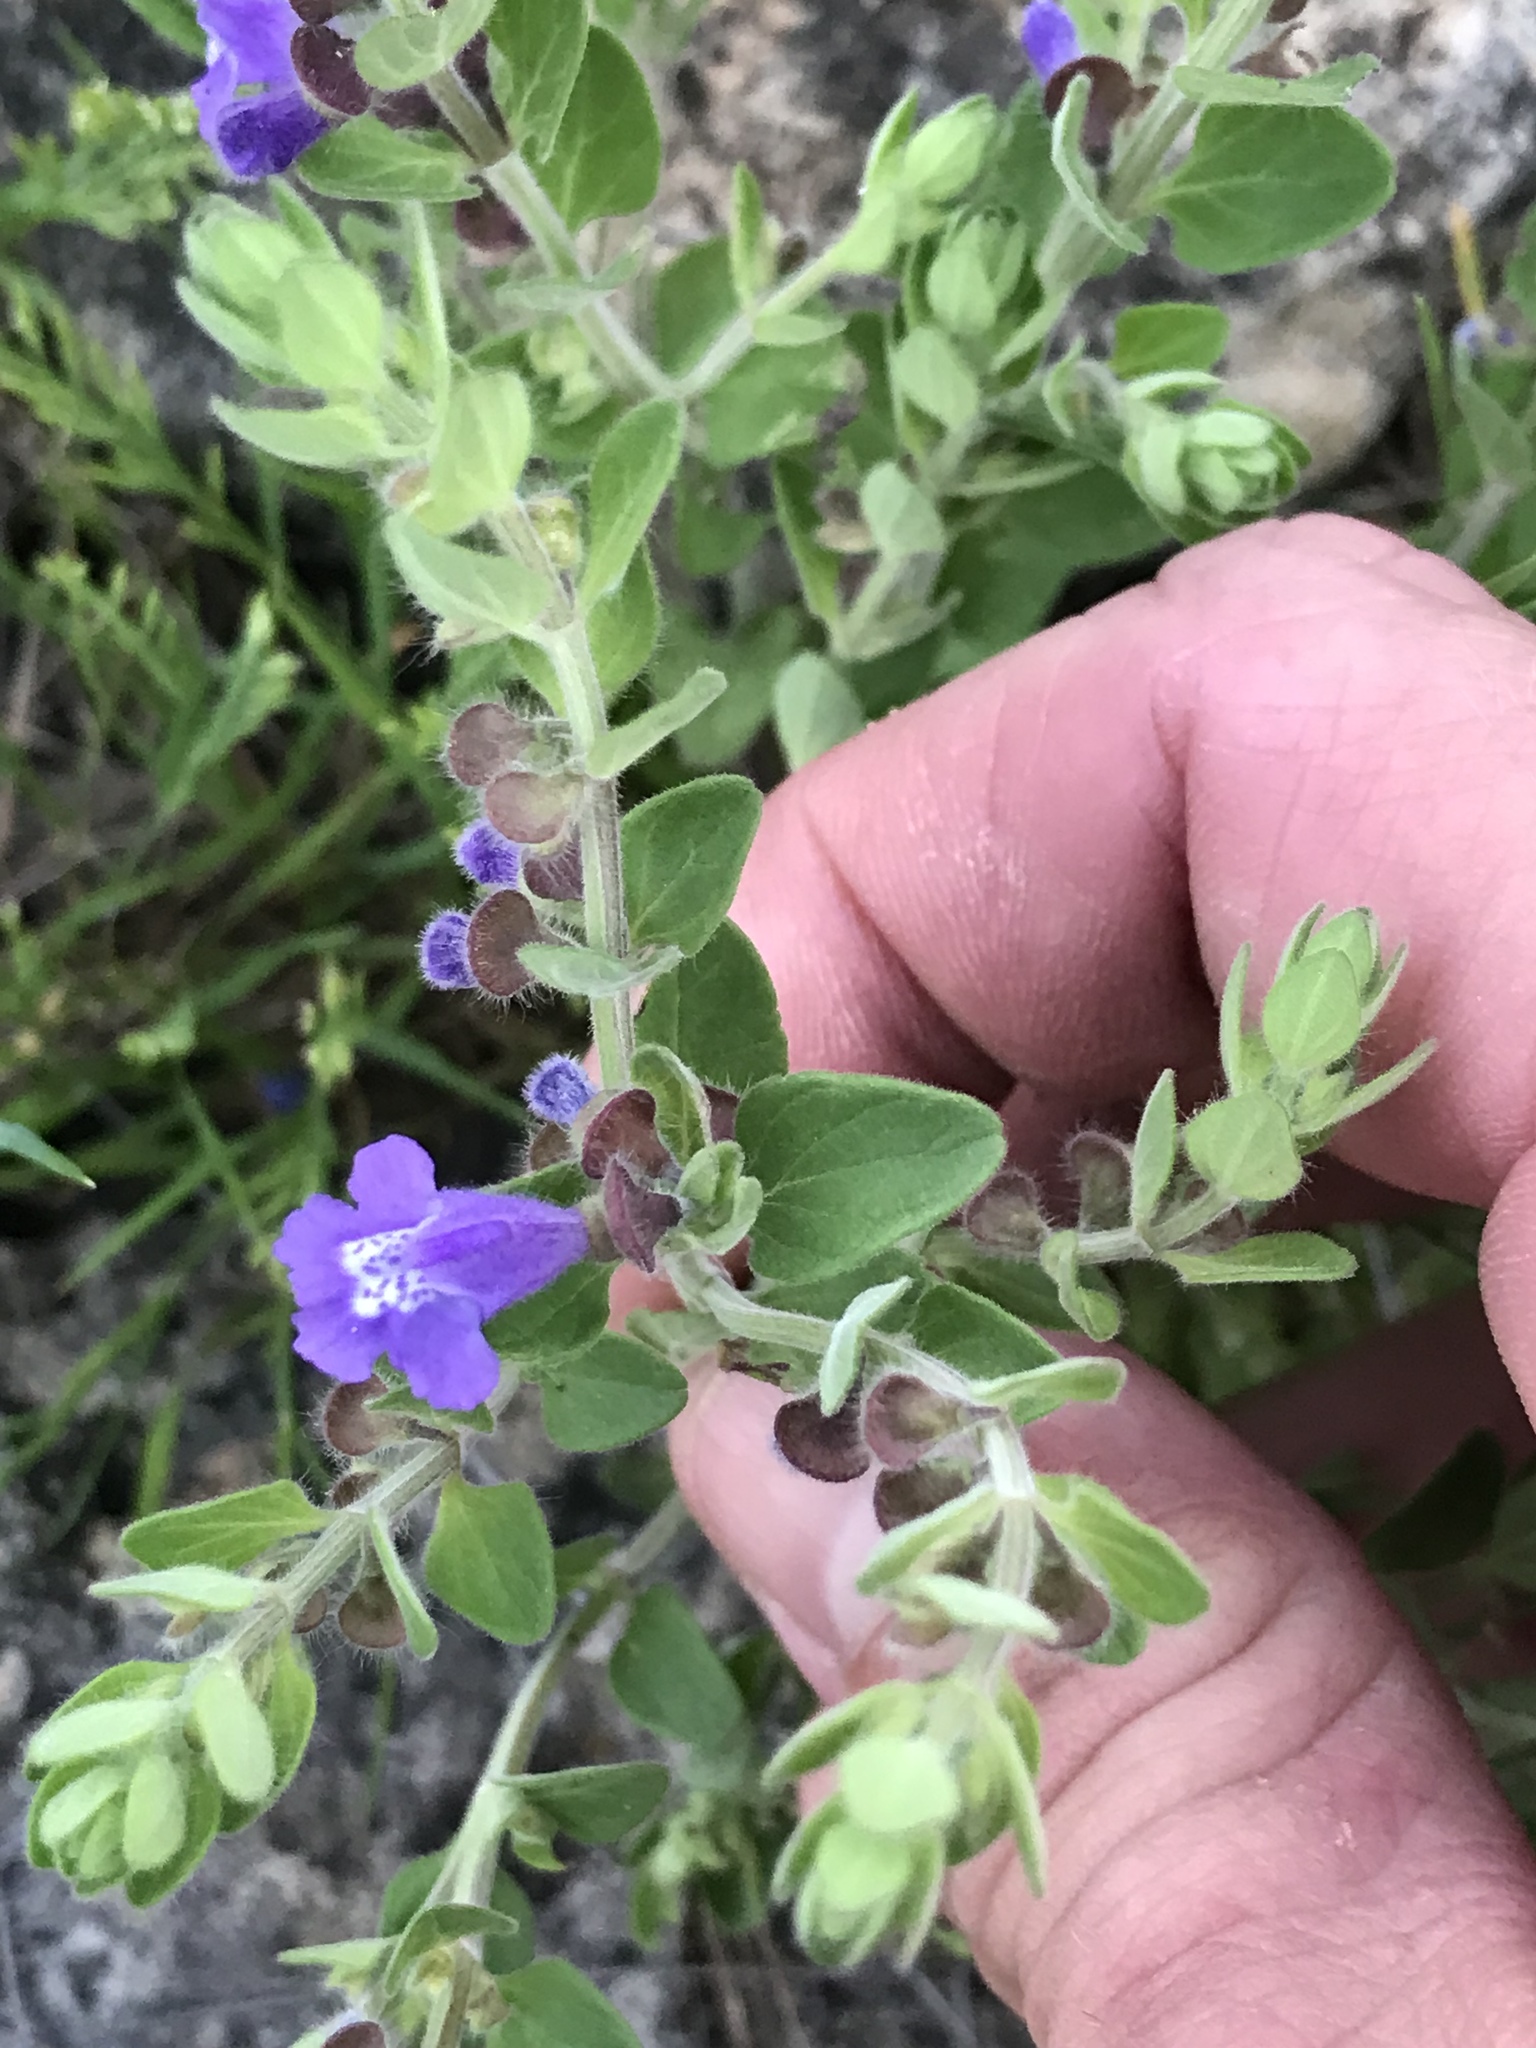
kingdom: Plantae
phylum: Tracheophyta
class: Magnoliopsida
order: Lamiales
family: Lamiaceae
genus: Scutellaria
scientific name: Scutellaria drummondii
